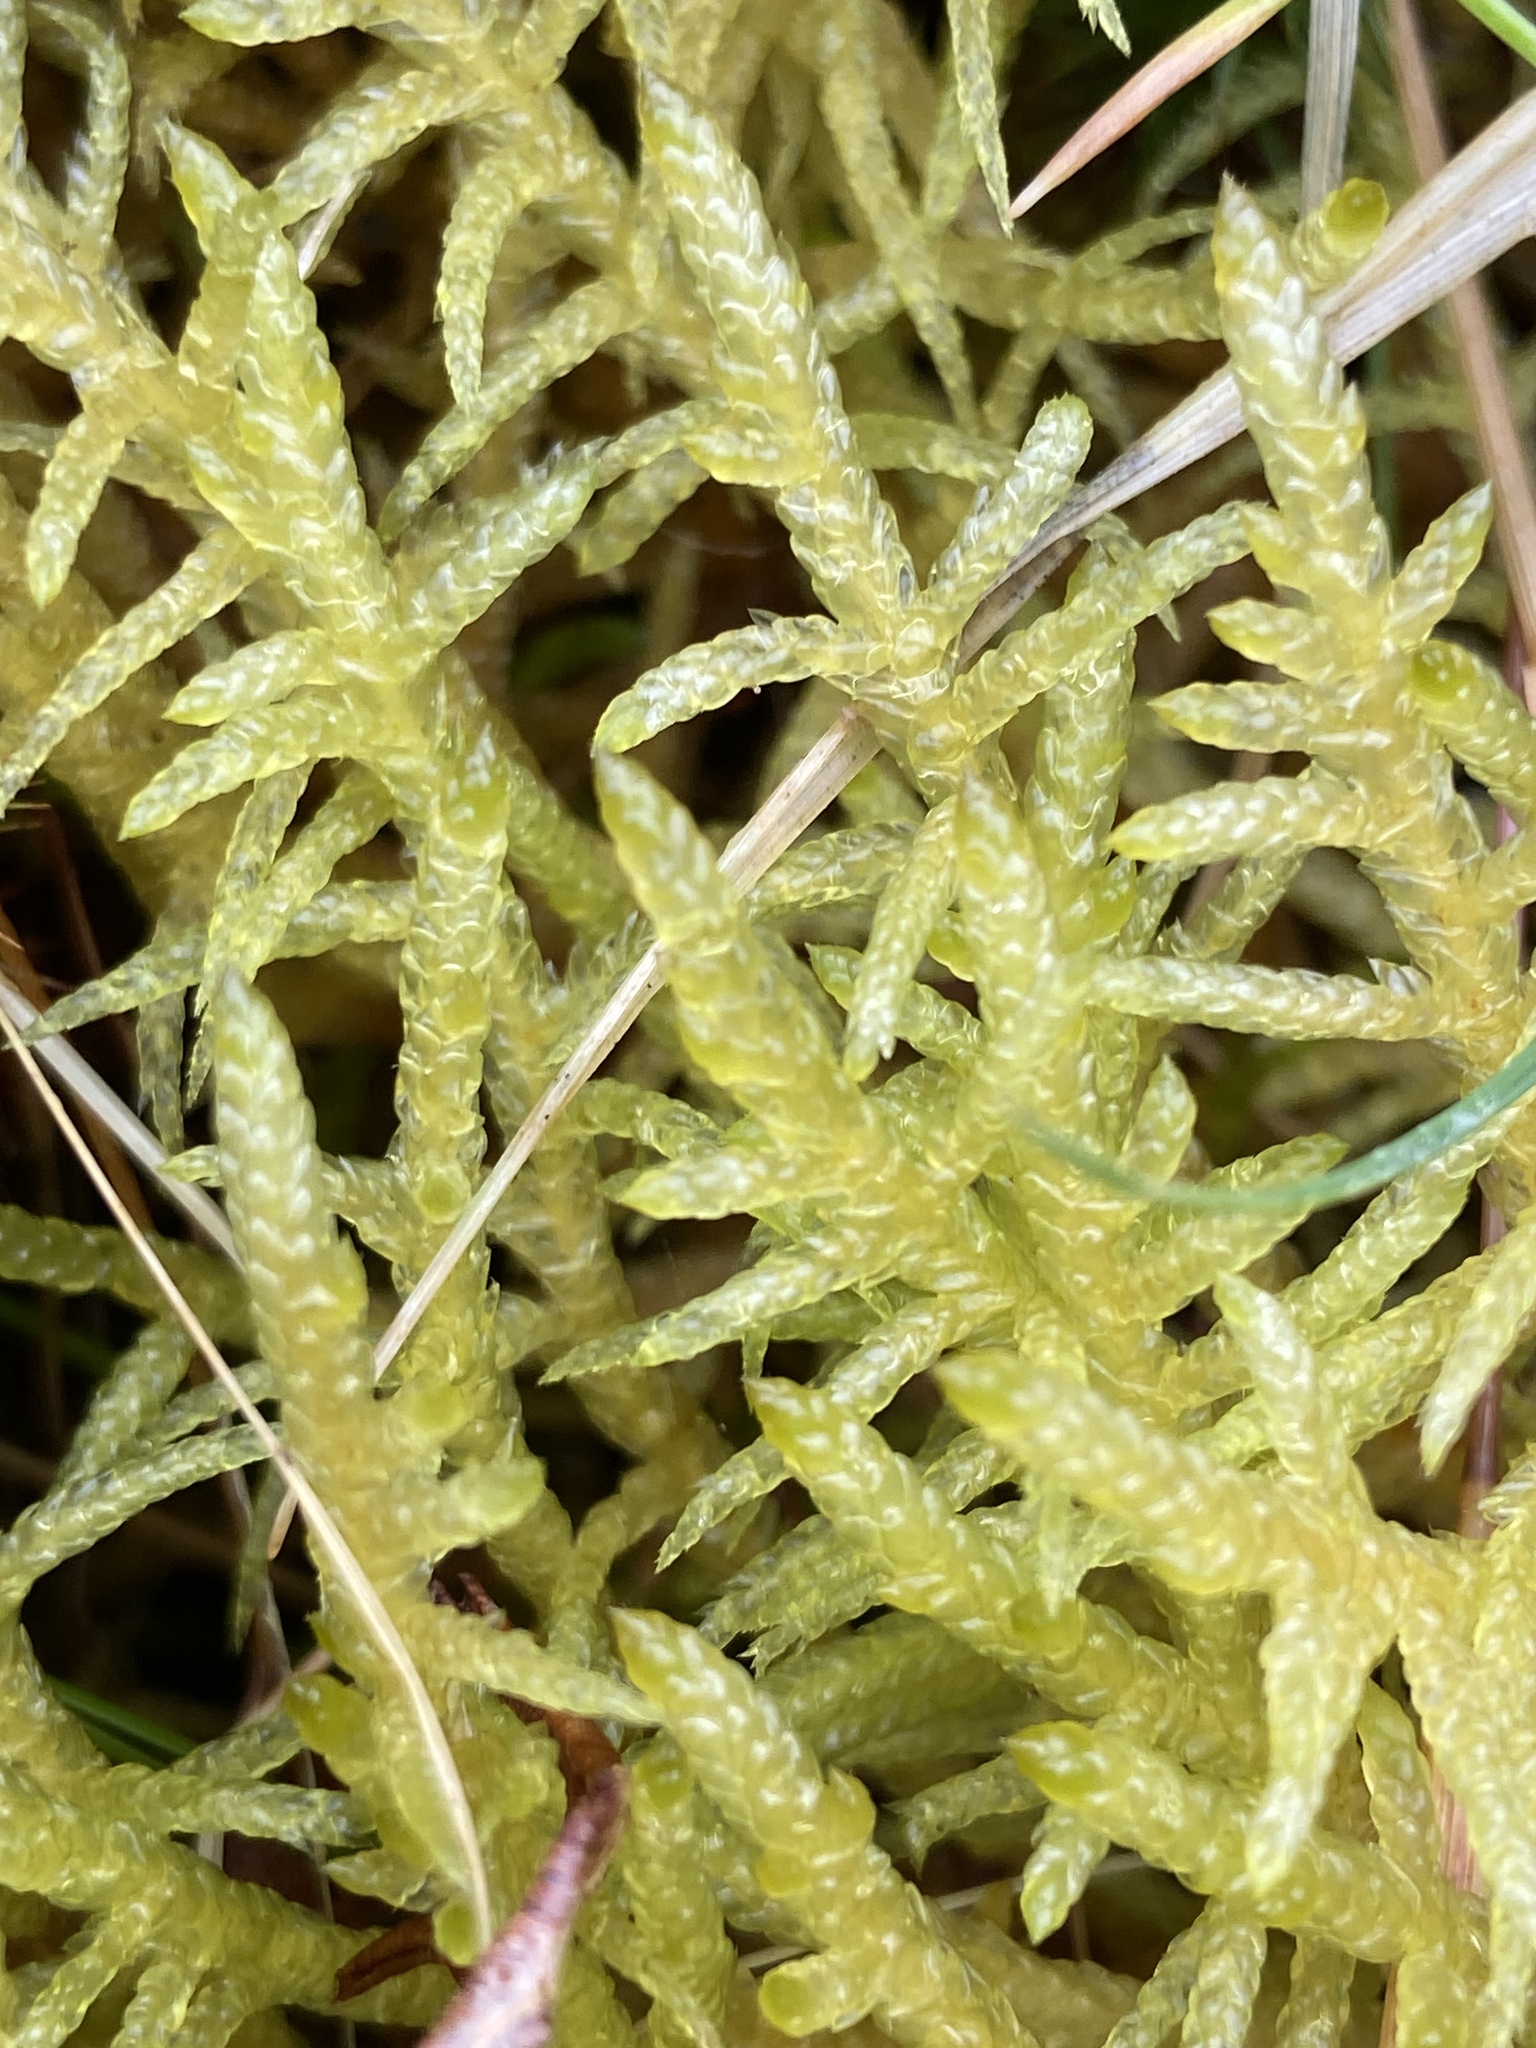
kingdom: Plantae
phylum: Bryophyta
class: Bryopsida
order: Hypnales
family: Brachytheciaceae
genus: Pseudoscleropodium
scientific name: Pseudoscleropodium purum
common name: Neat feather-moss
